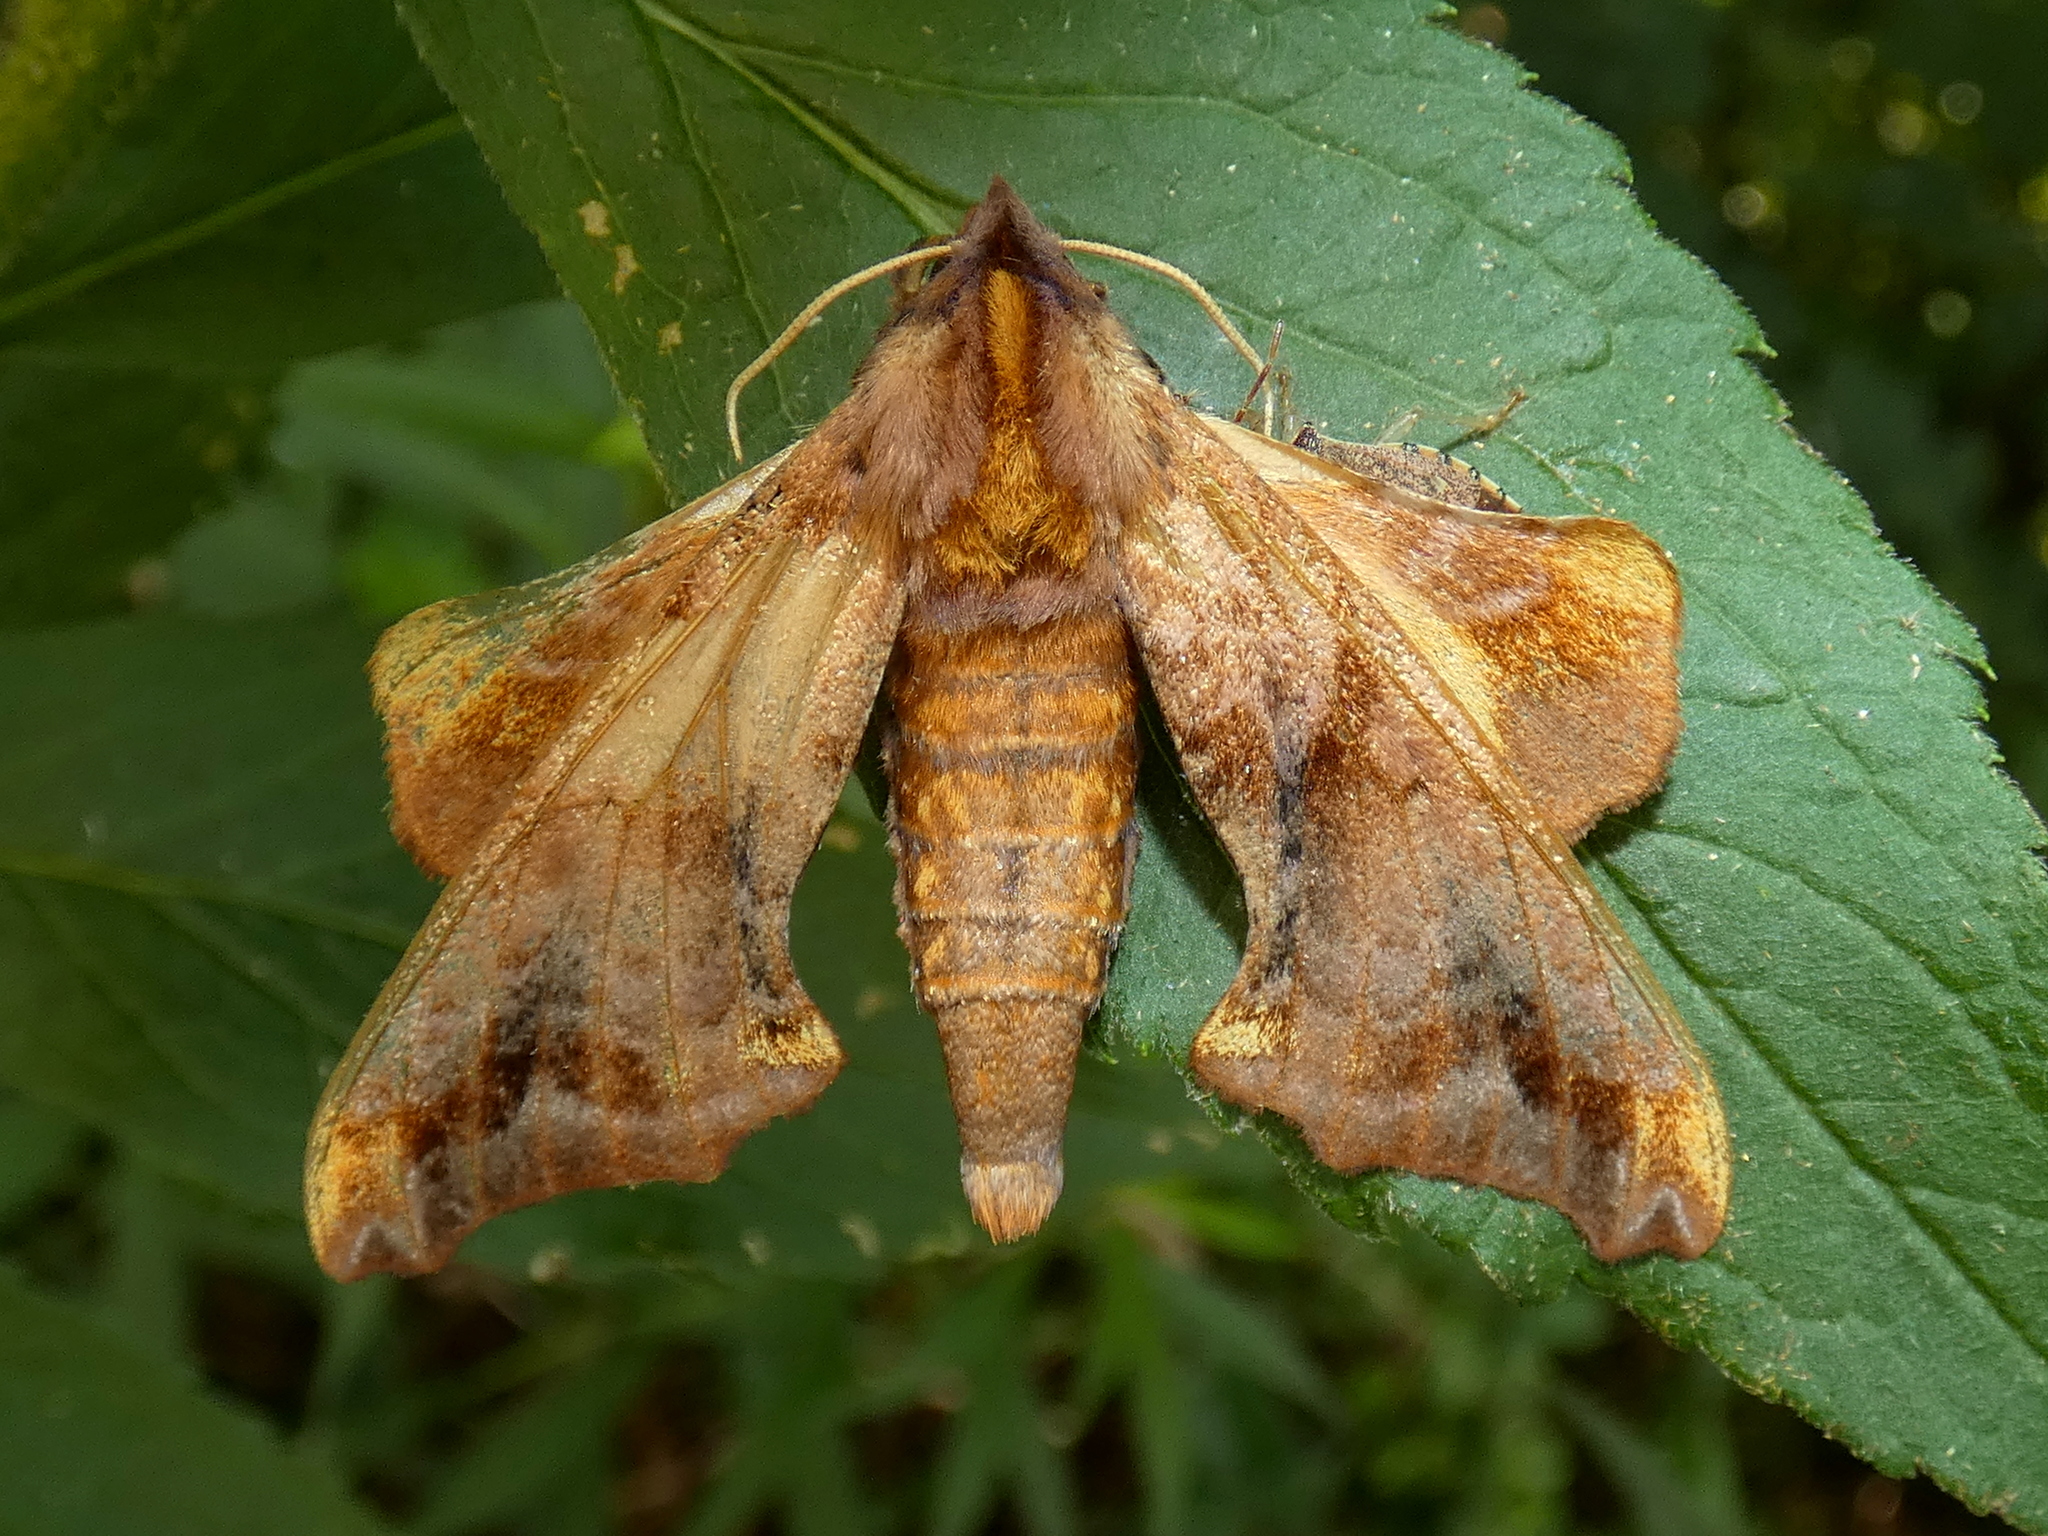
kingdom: Animalia
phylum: Arthropoda
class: Insecta
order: Lepidoptera
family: Sphingidae
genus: Paonias
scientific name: Paonias myops
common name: Small-eyed sphinx
